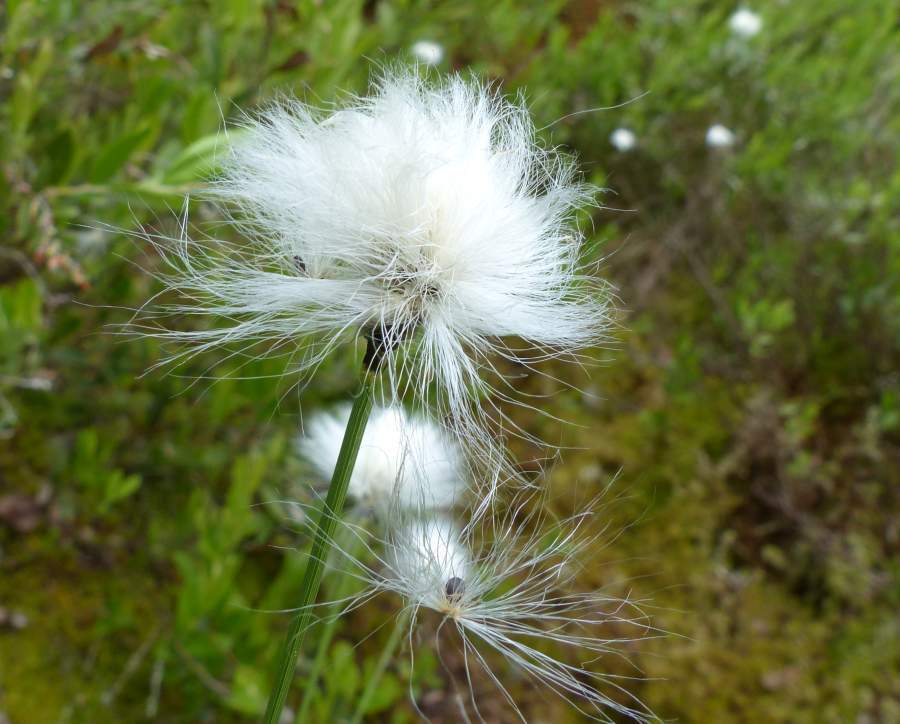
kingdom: Plantae
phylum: Tracheophyta
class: Liliopsida
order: Poales
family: Cyperaceae
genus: Eriophorum
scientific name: Eriophorum vaginatum
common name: Hare's-tail cottongrass
